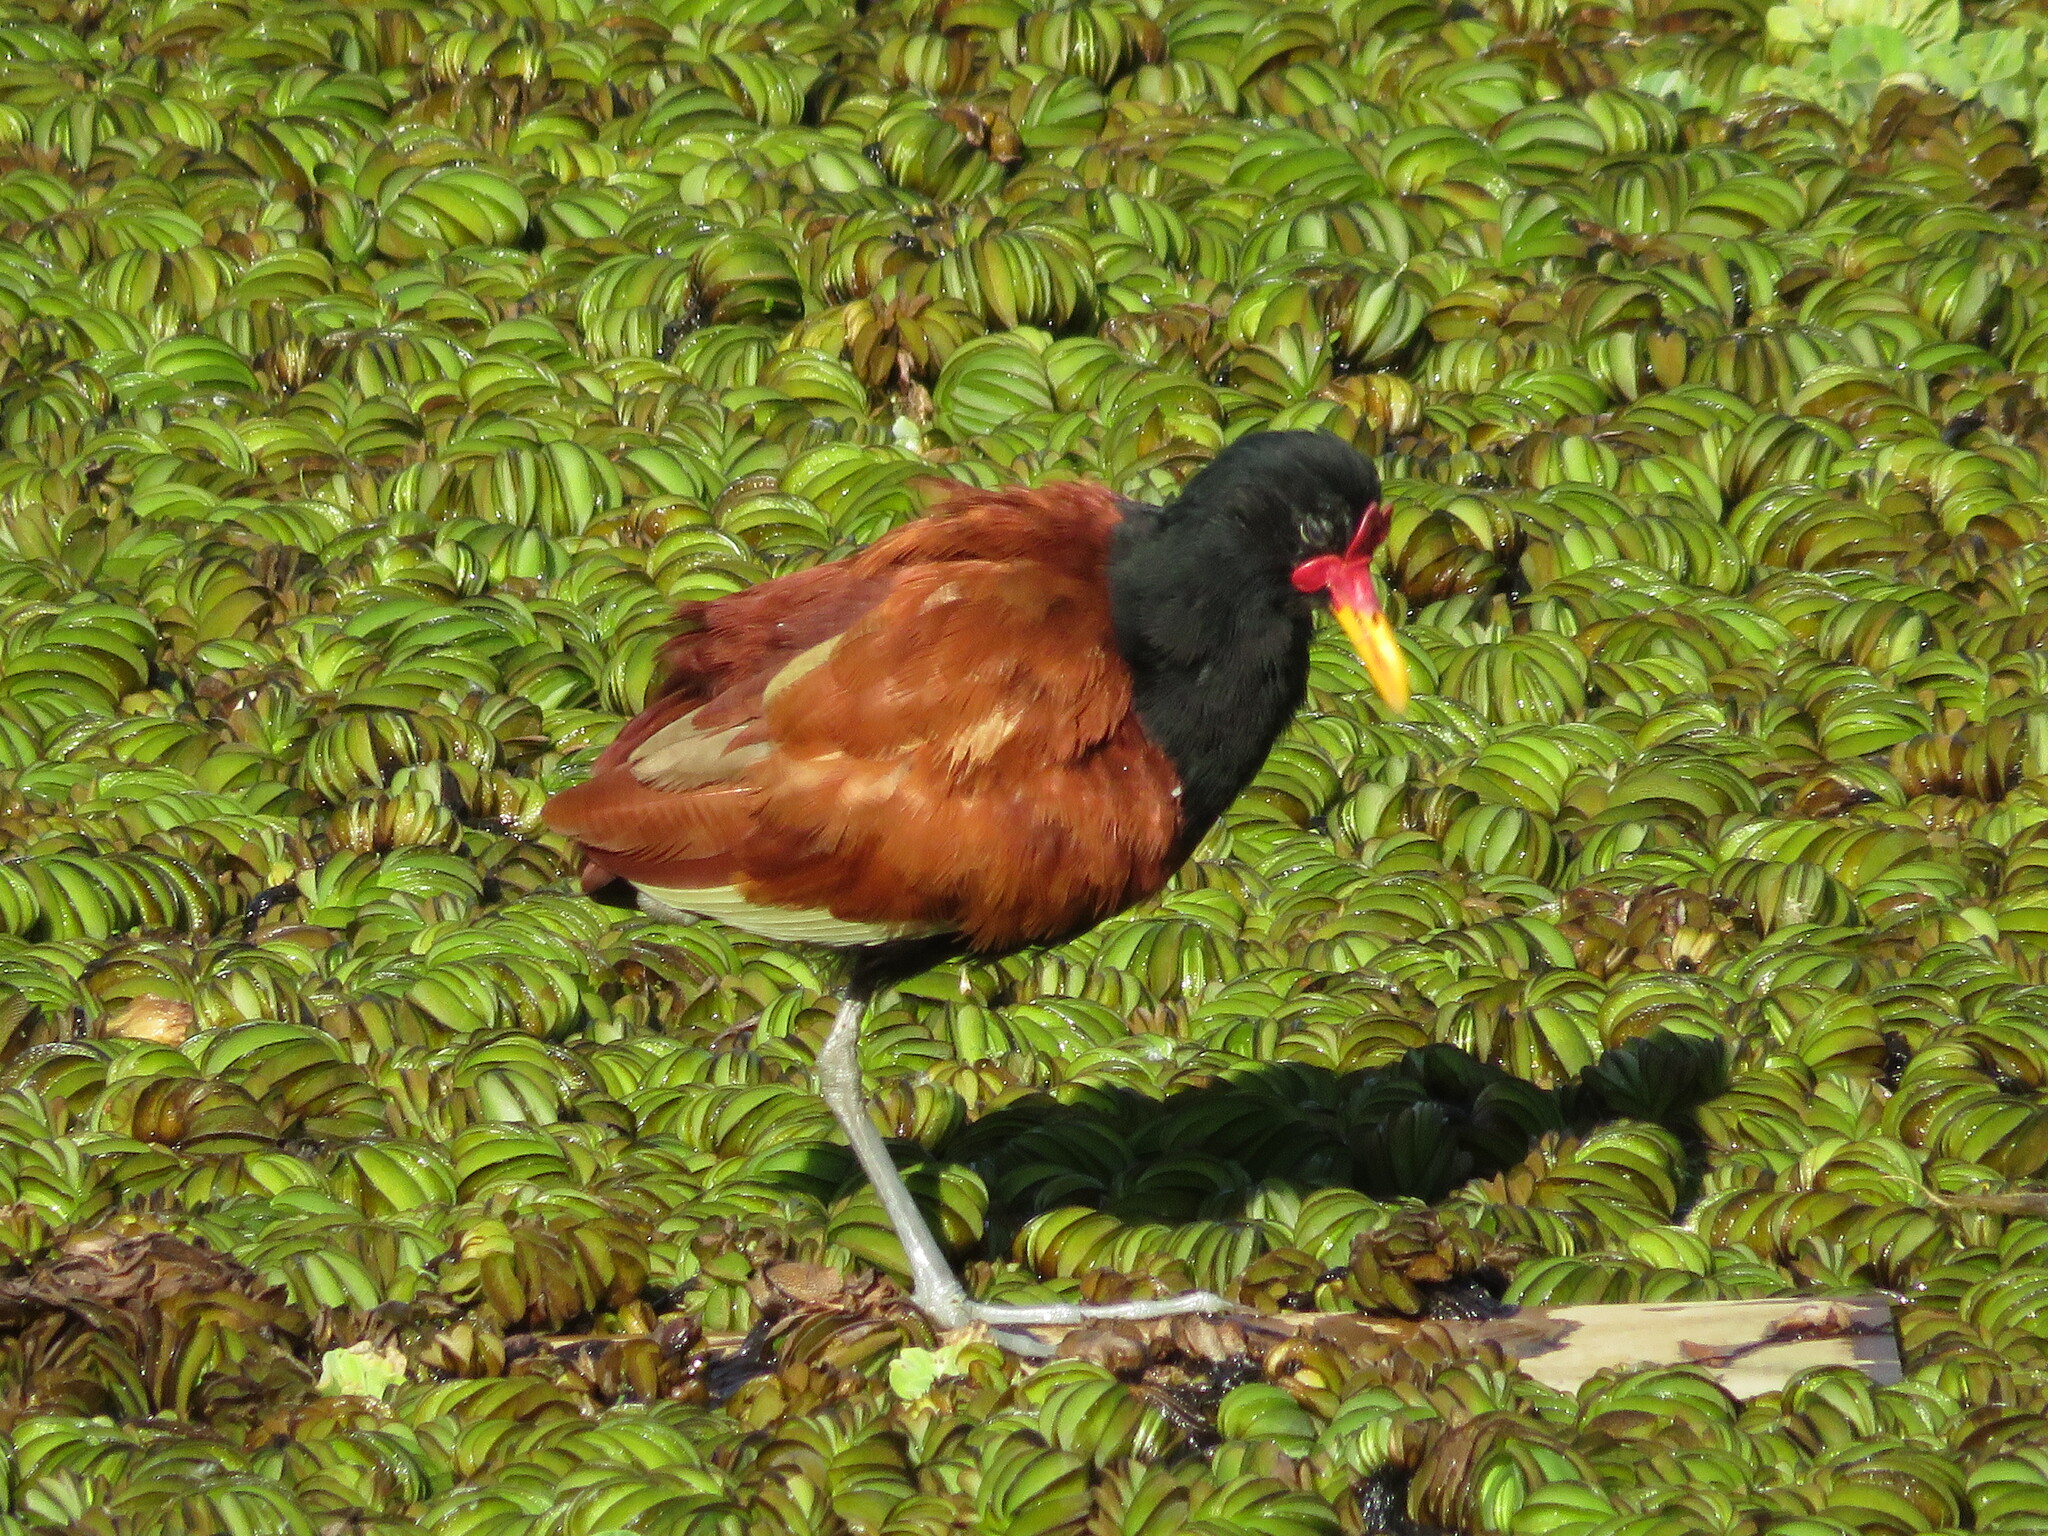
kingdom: Animalia
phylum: Chordata
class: Aves
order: Charadriiformes
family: Jacanidae
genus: Jacana
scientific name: Jacana jacana
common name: Wattled jacana
